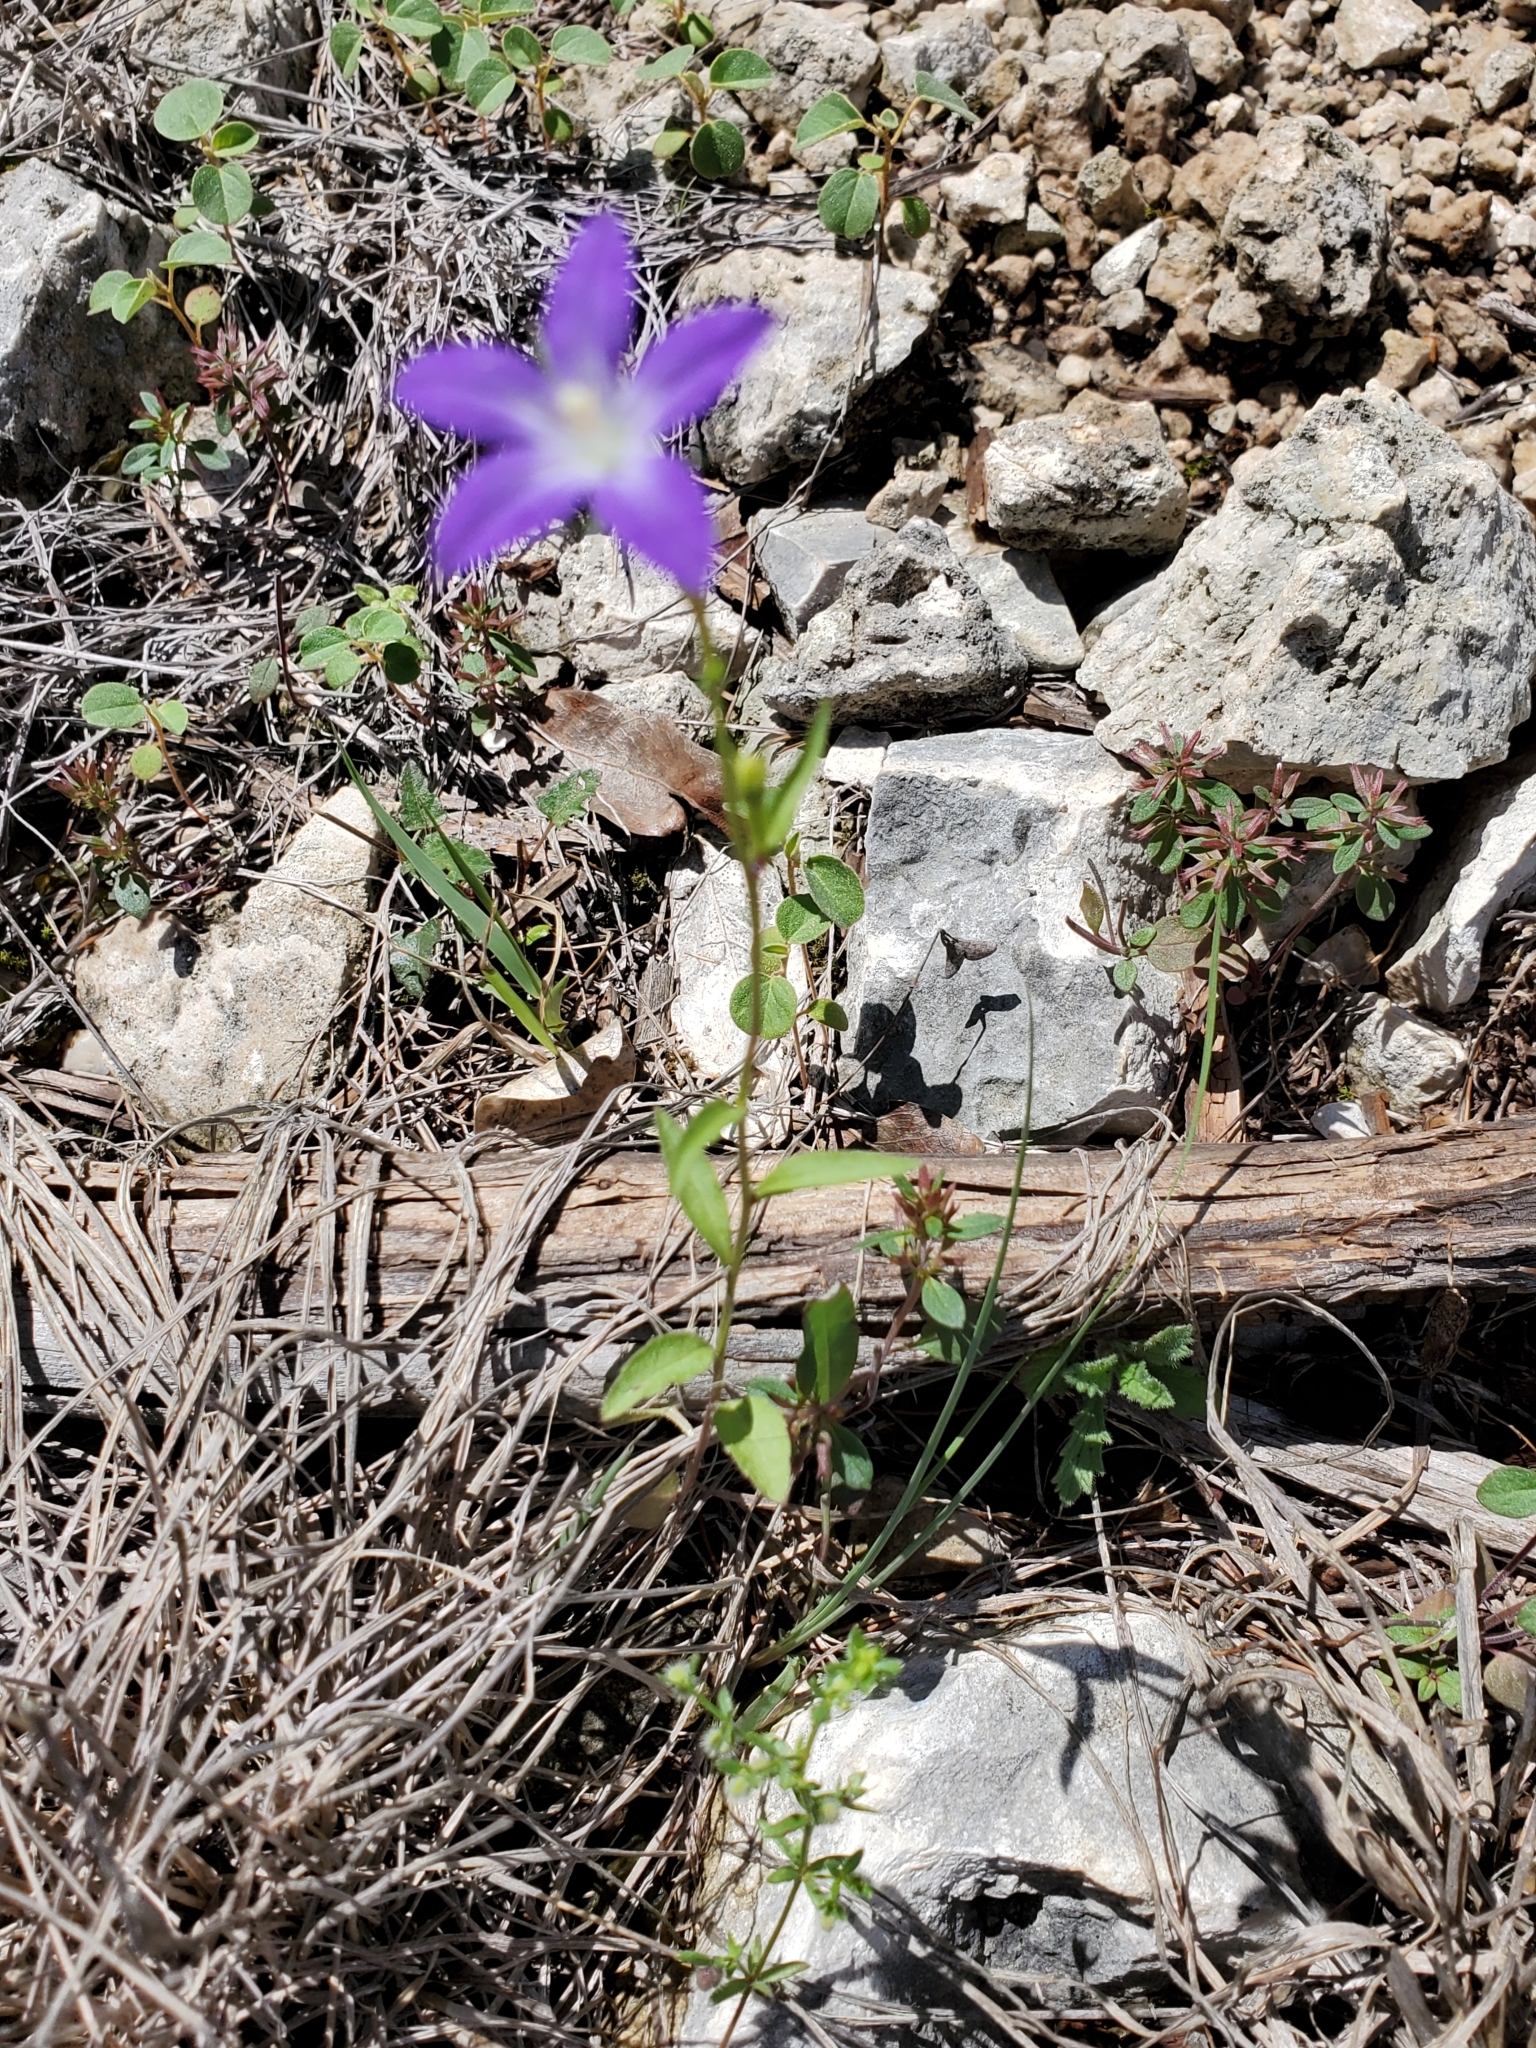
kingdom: Plantae
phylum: Tracheophyta
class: Magnoliopsida
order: Asterales
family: Campanulaceae
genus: Triodanis
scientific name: Triodanis coloradoensis
